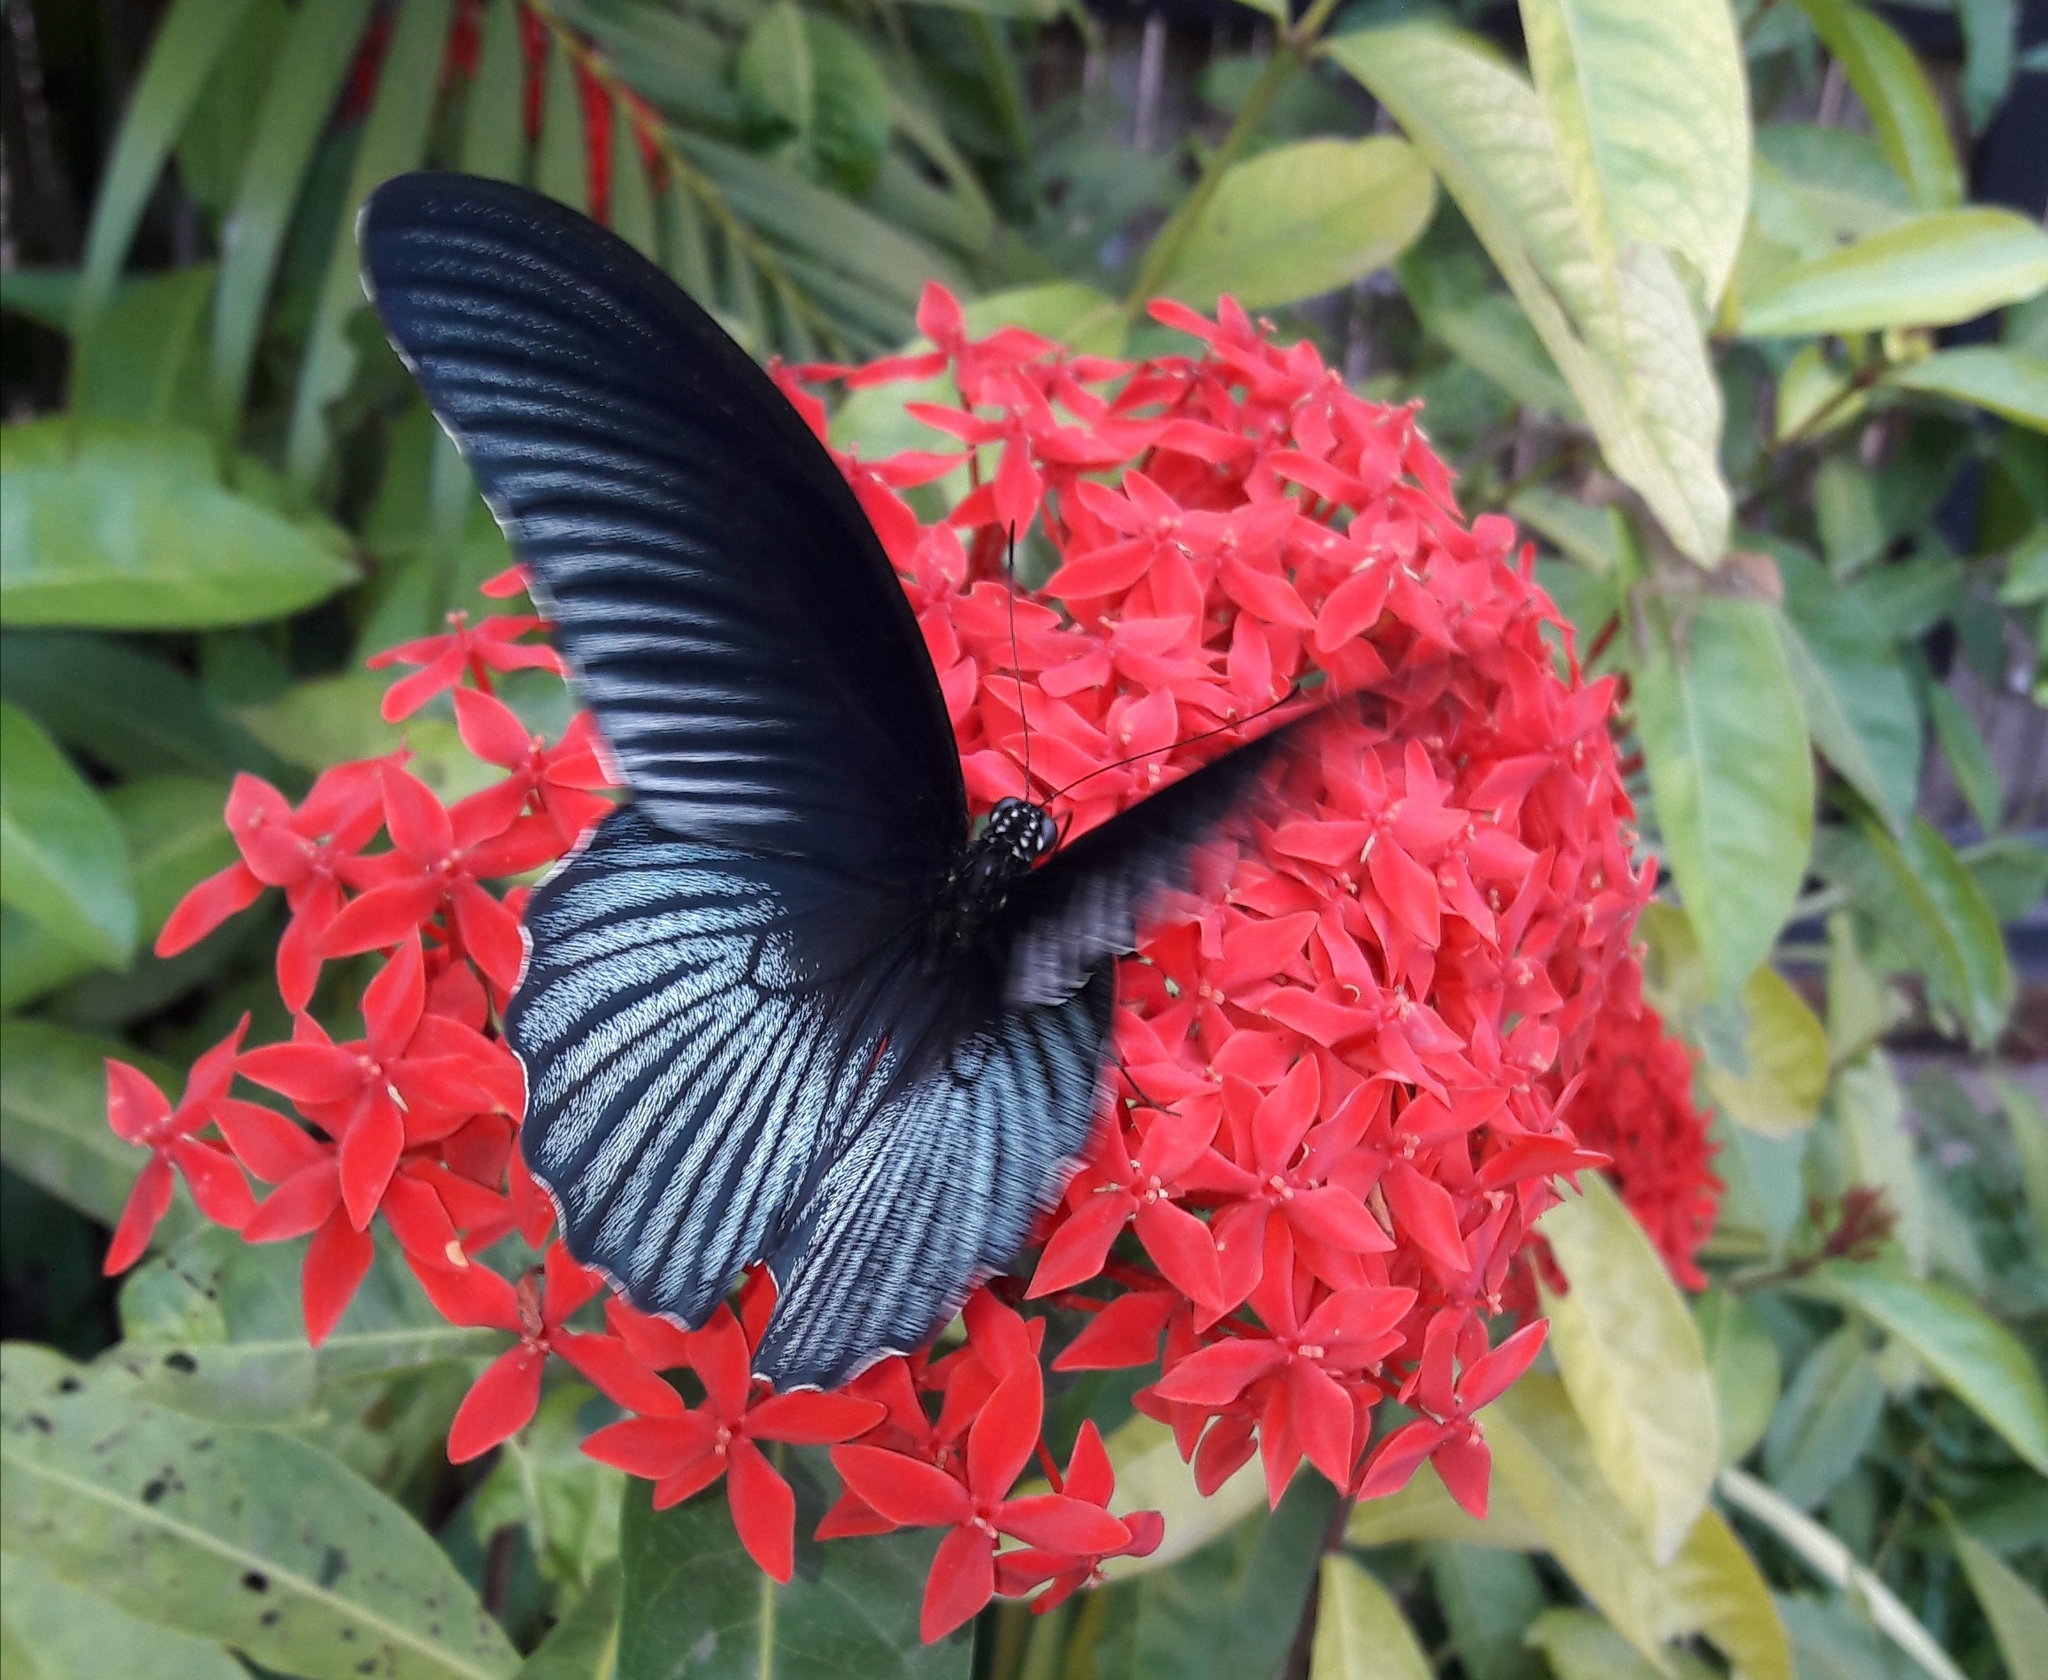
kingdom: Animalia
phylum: Arthropoda
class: Insecta
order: Lepidoptera
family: Papilionidae
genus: Papilio
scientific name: Papilio memnon
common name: Great mormon
